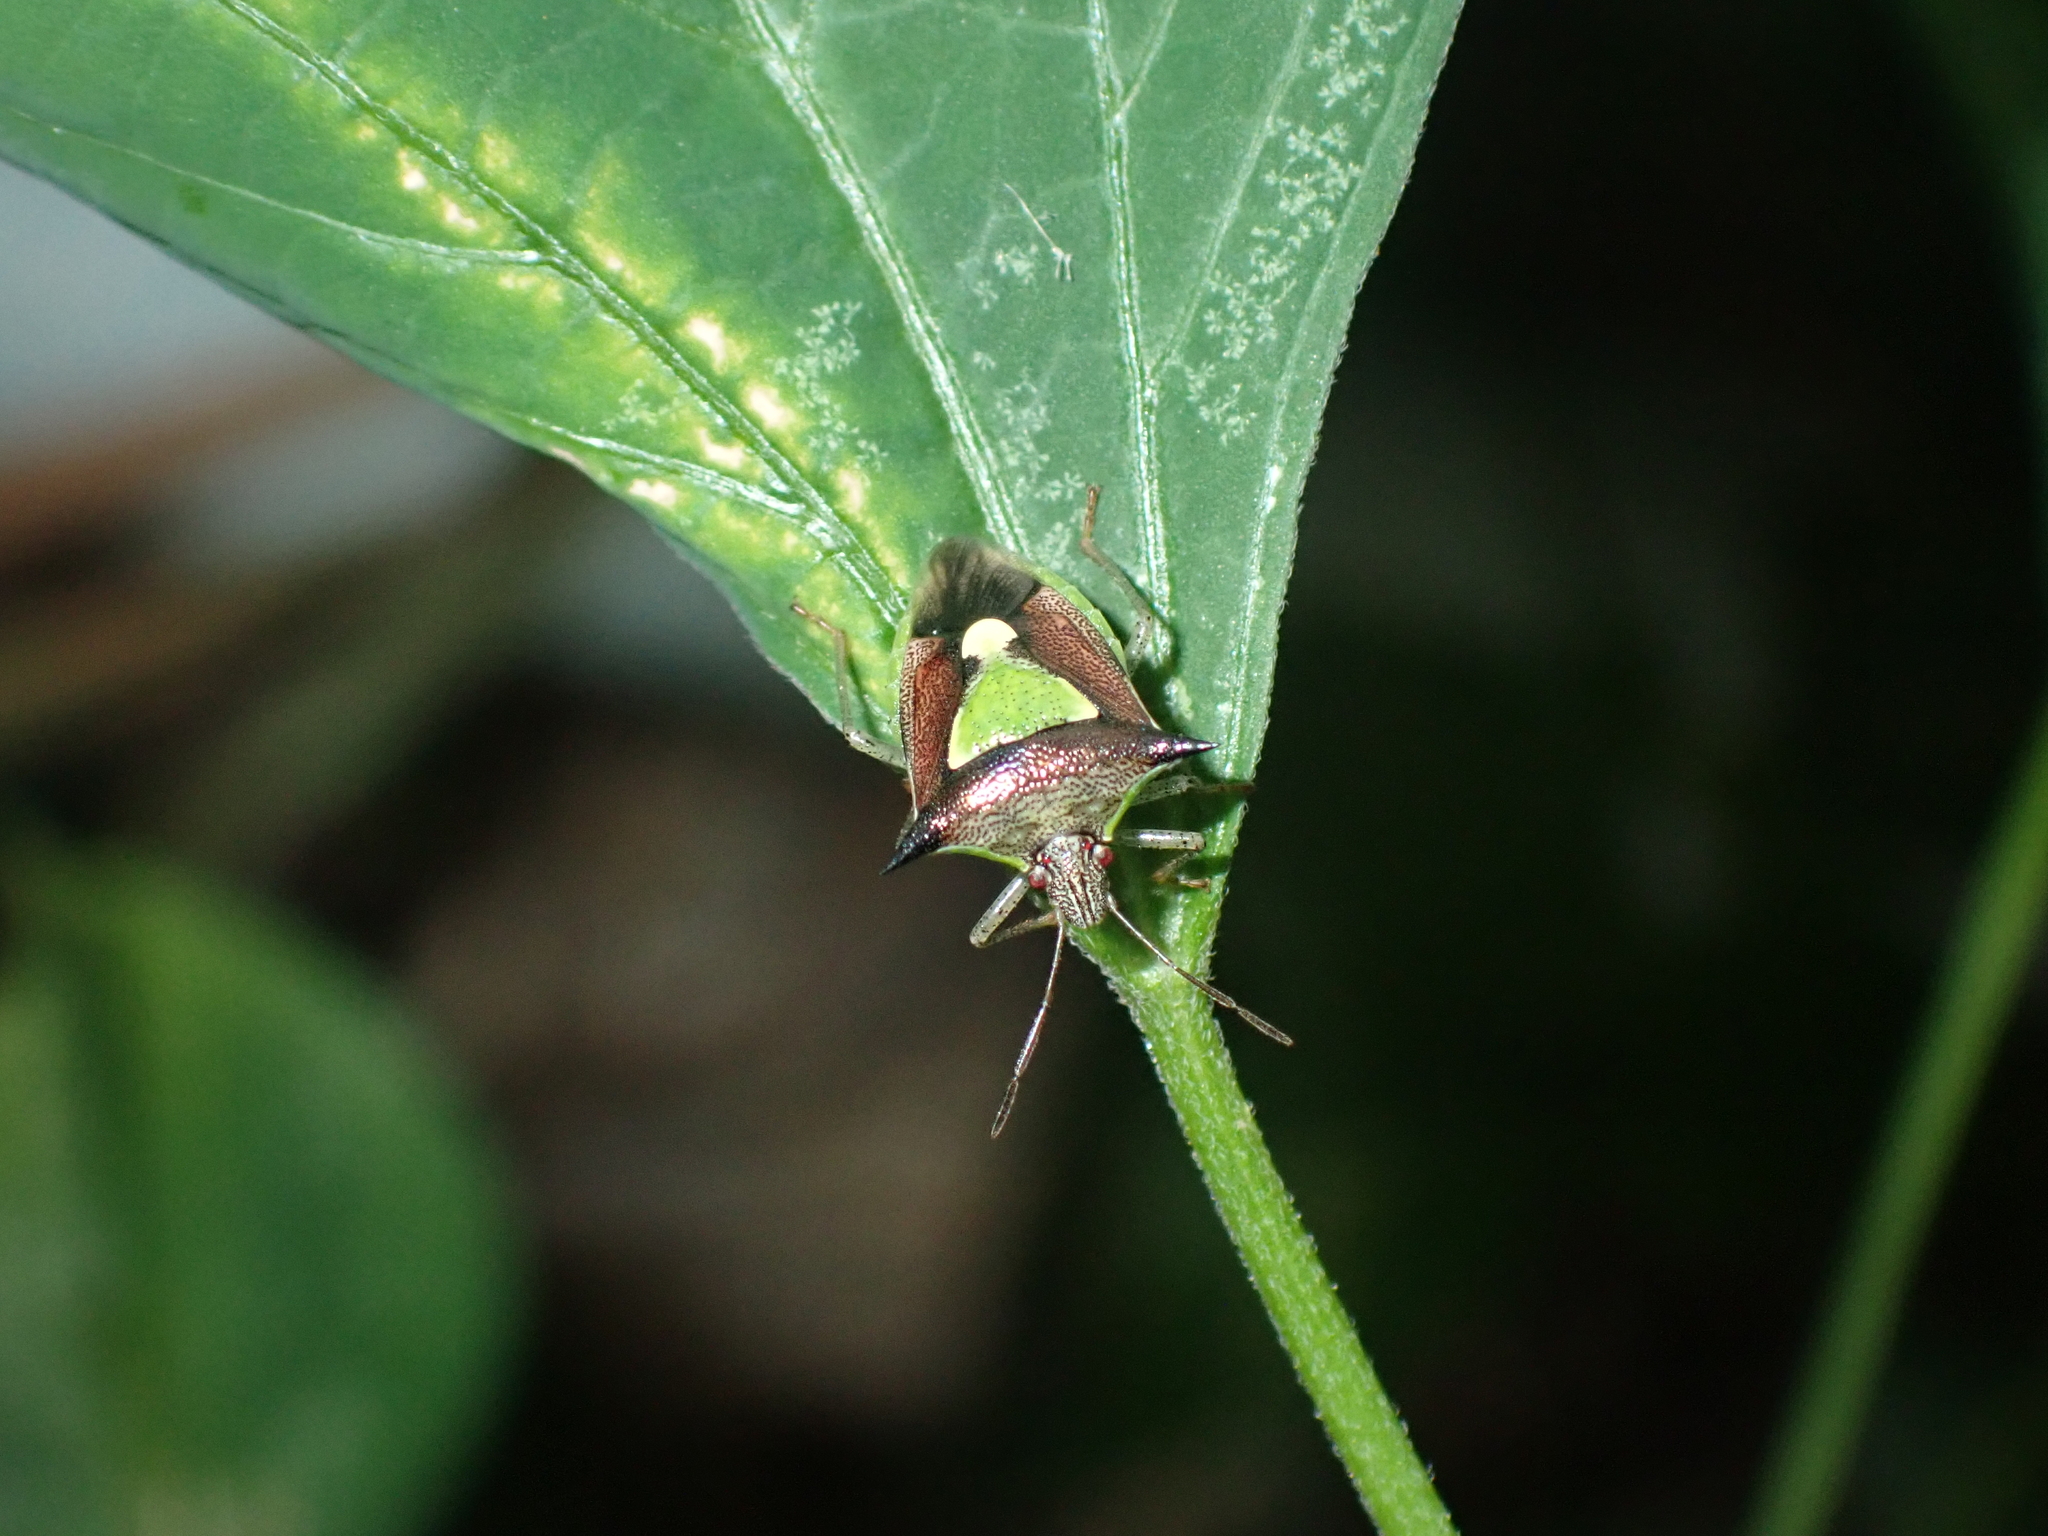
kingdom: Animalia
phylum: Arthropoda
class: Insecta
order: Hemiptera
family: Pentatomidae
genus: Carbula
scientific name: Carbula scutellata
